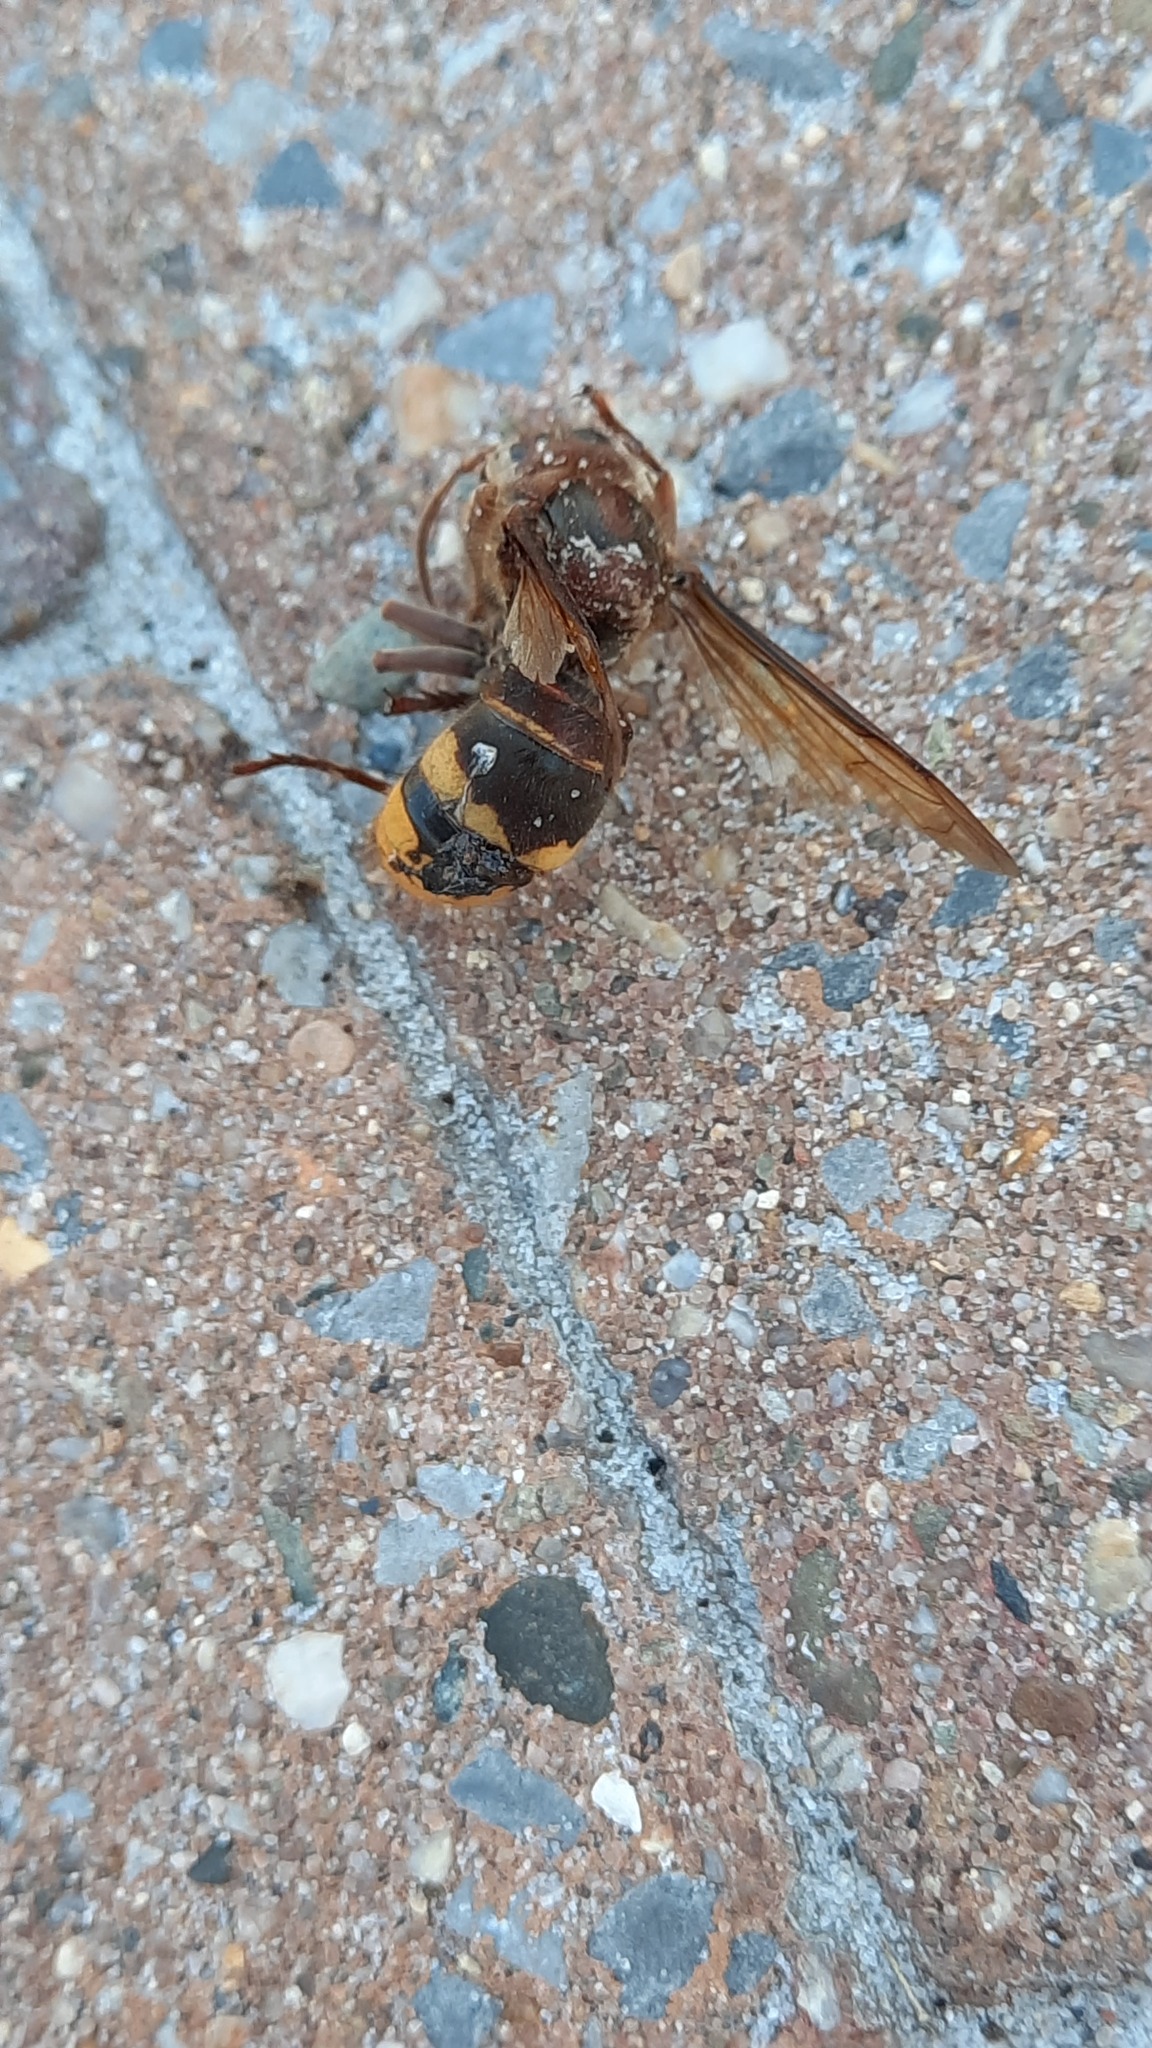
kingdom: Animalia
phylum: Arthropoda
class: Insecta
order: Hymenoptera
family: Vespidae
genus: Vespa
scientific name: Vespa crabro
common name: Hornet
